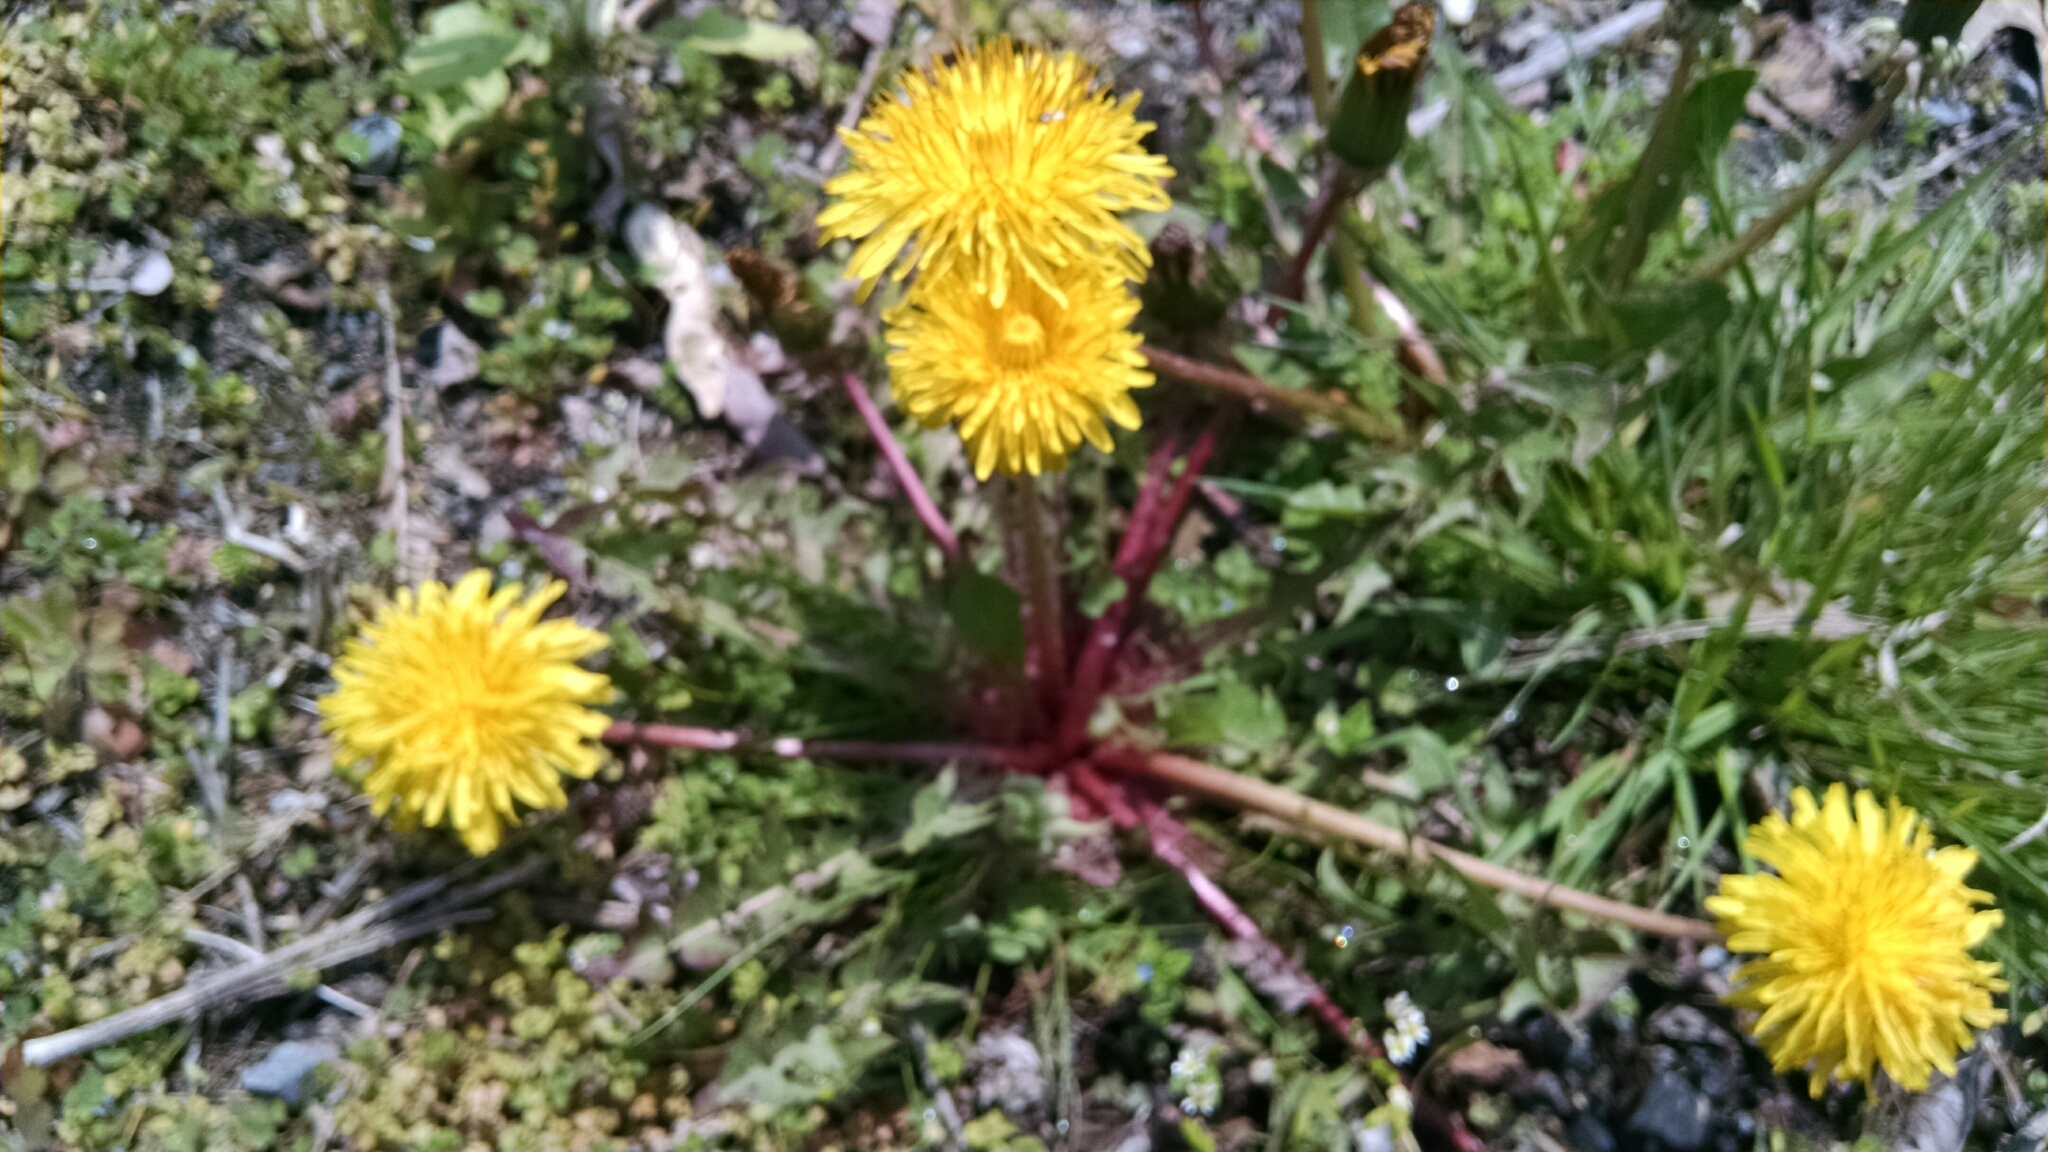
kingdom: Plantae
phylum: Tracheophyta
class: Magnoliopsida
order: Asterales
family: Asteraceae
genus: Taraxacum
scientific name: Taraxacum officinale
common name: Common dandelion
